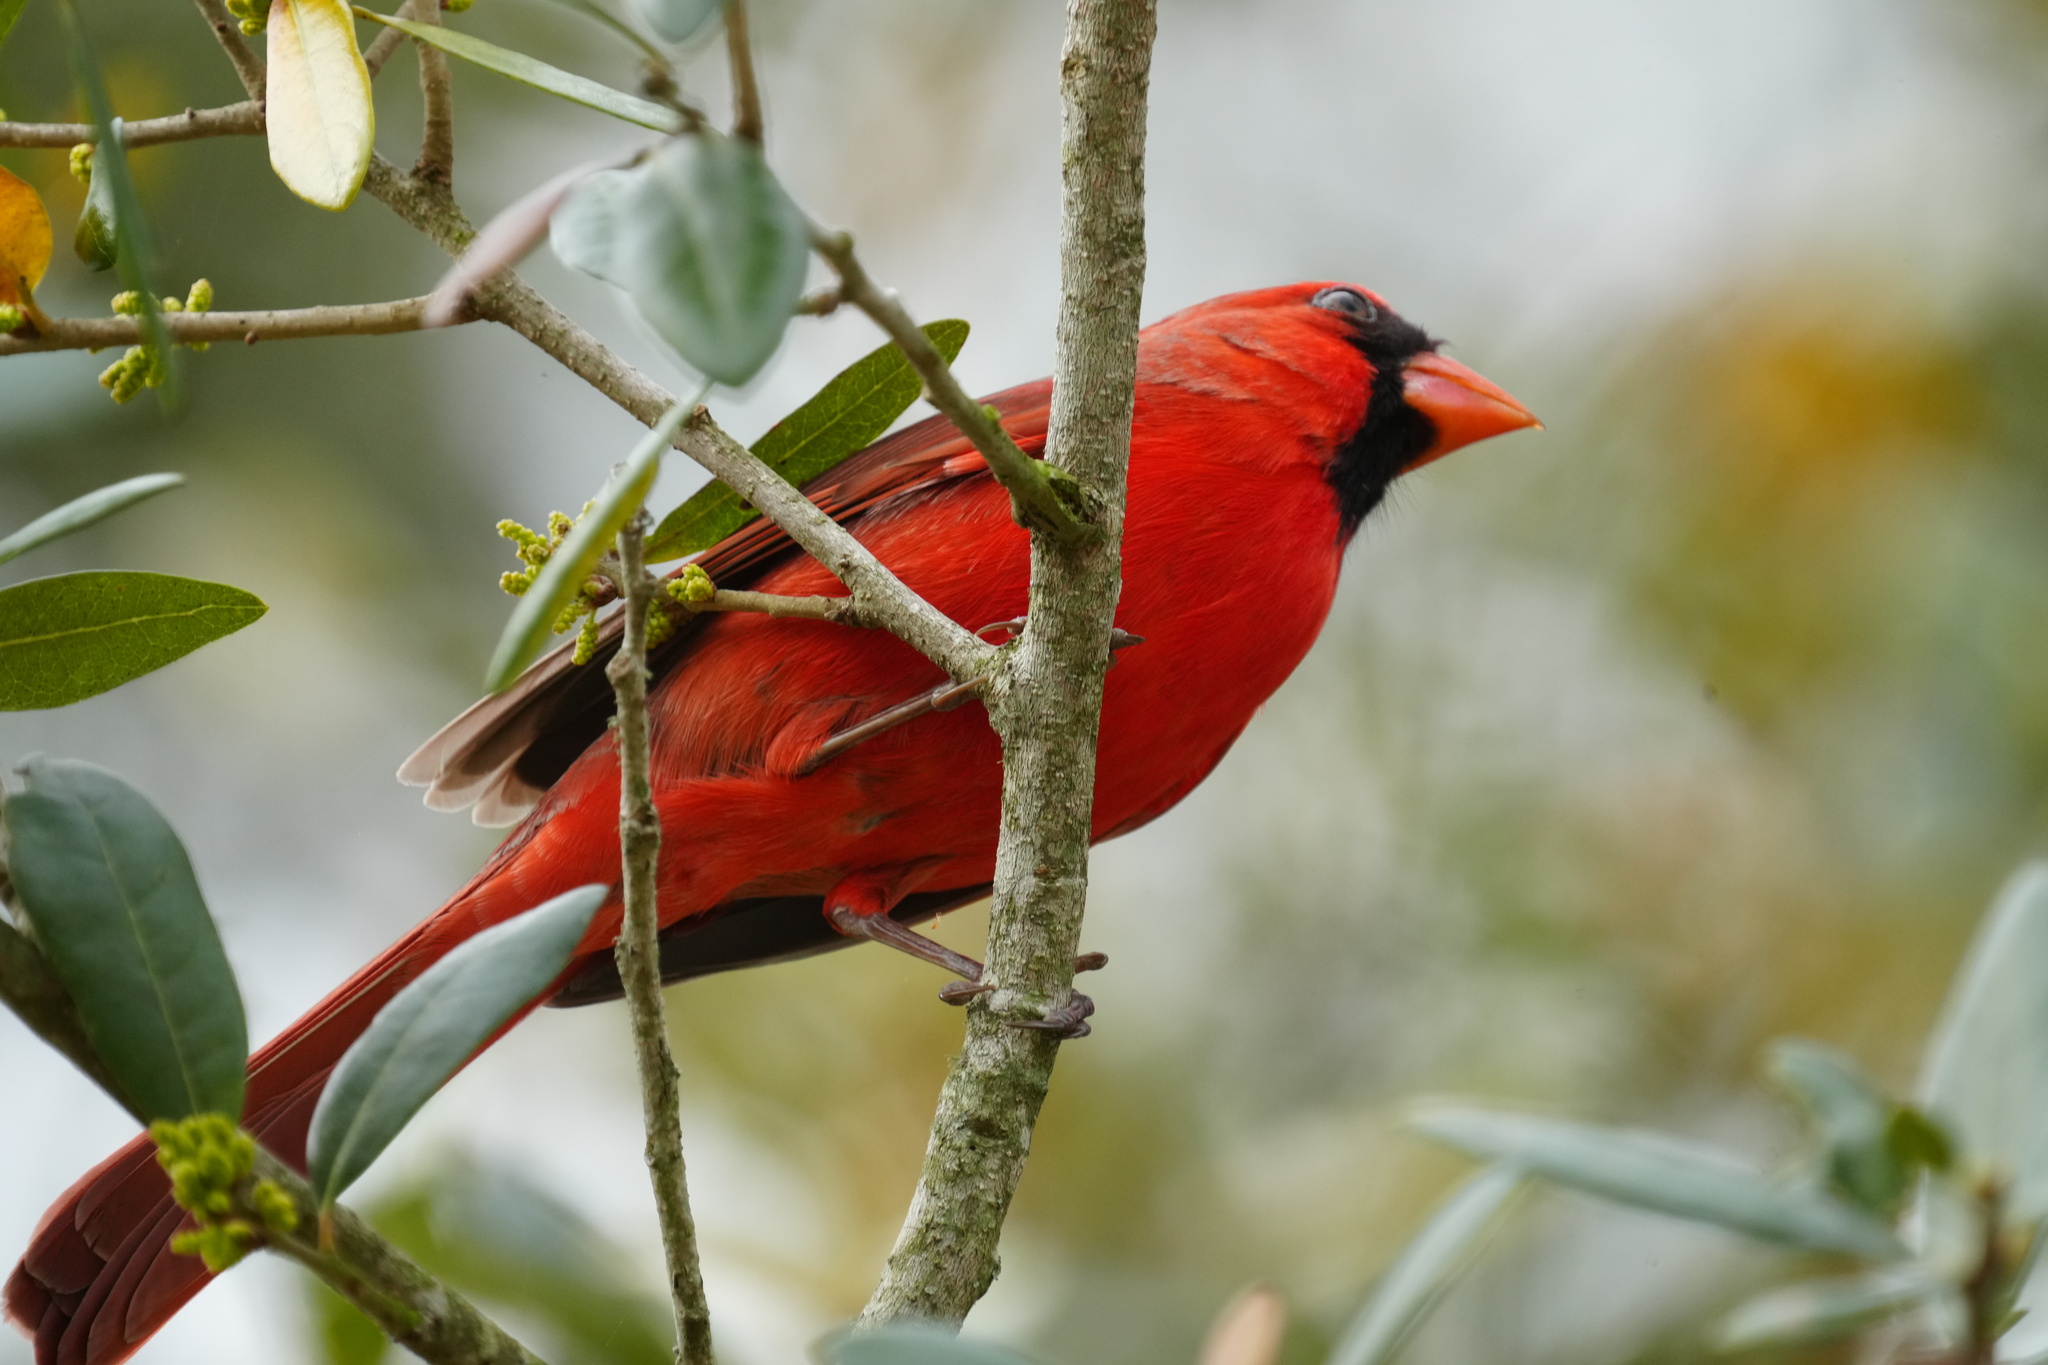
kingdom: Animalia
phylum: Chordata
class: Aves
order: Passeriformes
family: Cardinalidae
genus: Cardinalis
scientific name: Cardinalis cardinalis
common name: Northern cardinal
